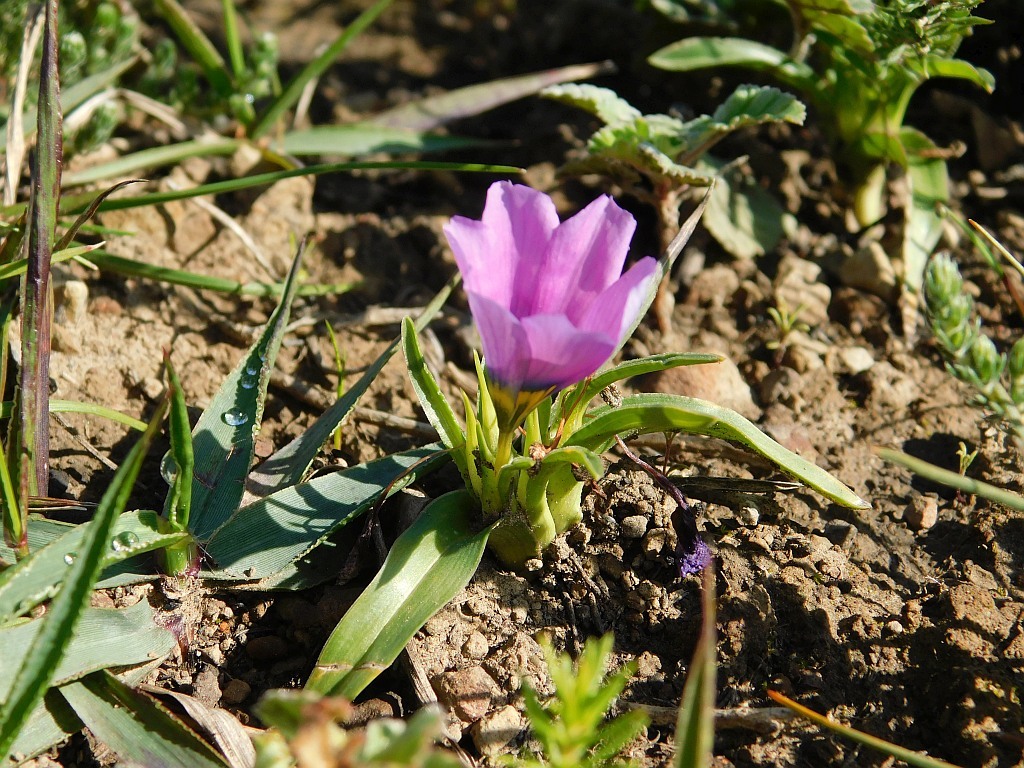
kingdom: Plantae
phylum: Tracheophyta
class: Liliopsida
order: Asparagales
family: Iridaceae
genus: Moraea
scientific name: Moraea barnardiella
